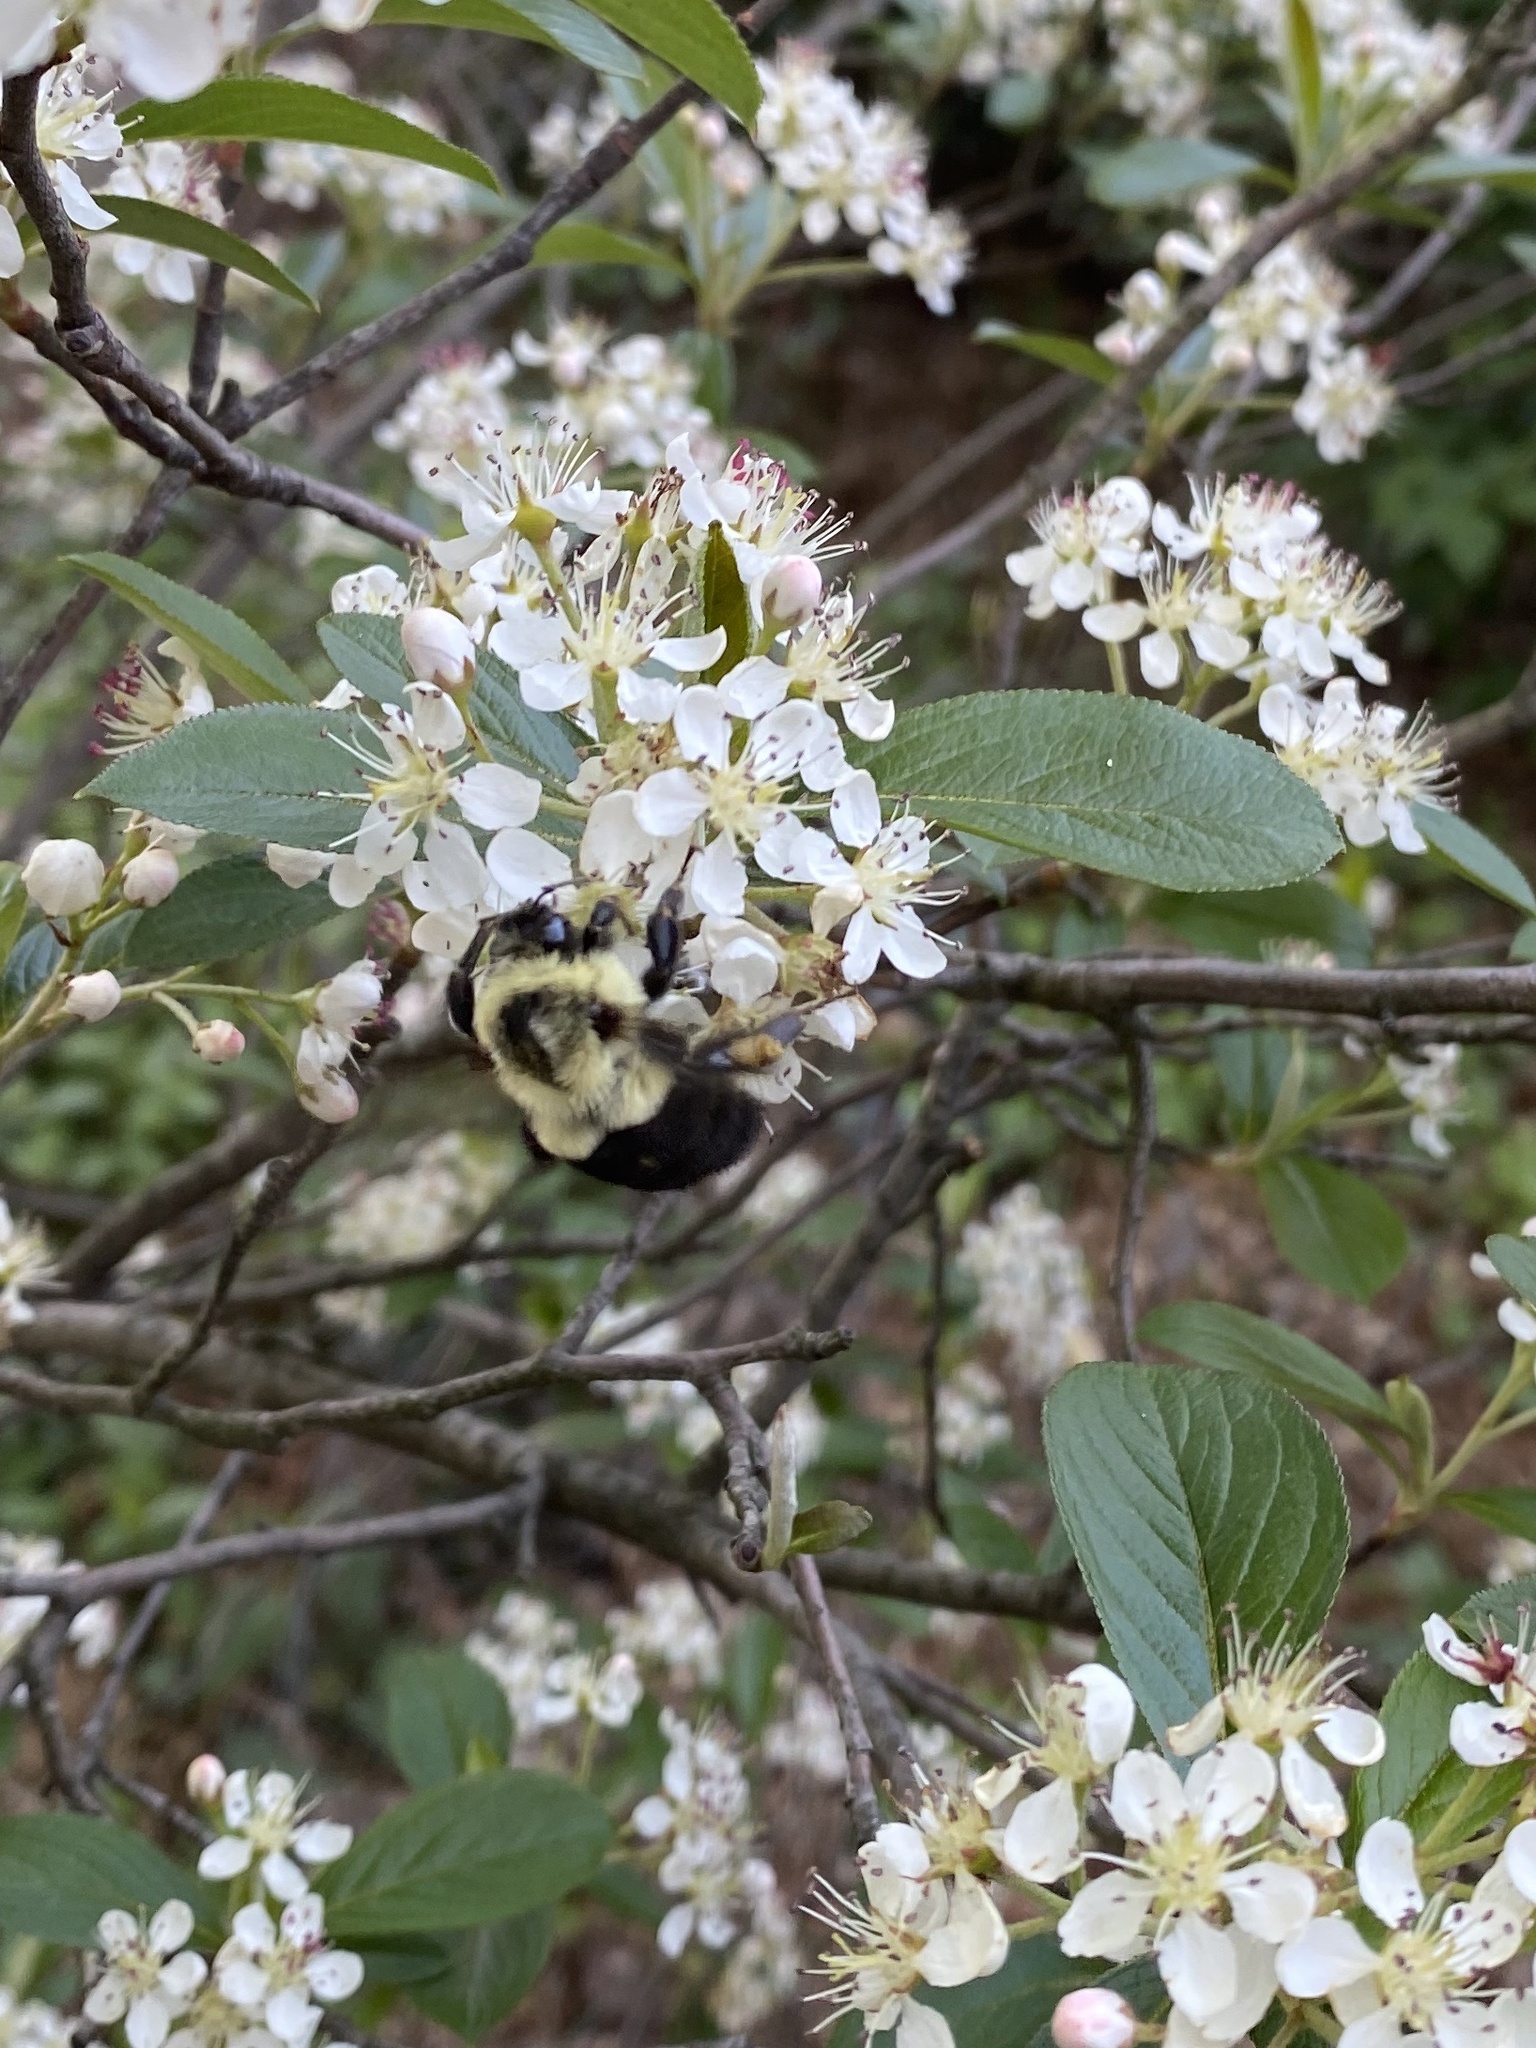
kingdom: Animalia
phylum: Arthropoda
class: Insecta
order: Hymenoptera
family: Apidae
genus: Bombus
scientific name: Bombus impatiens
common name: Common eastern bumble bee
